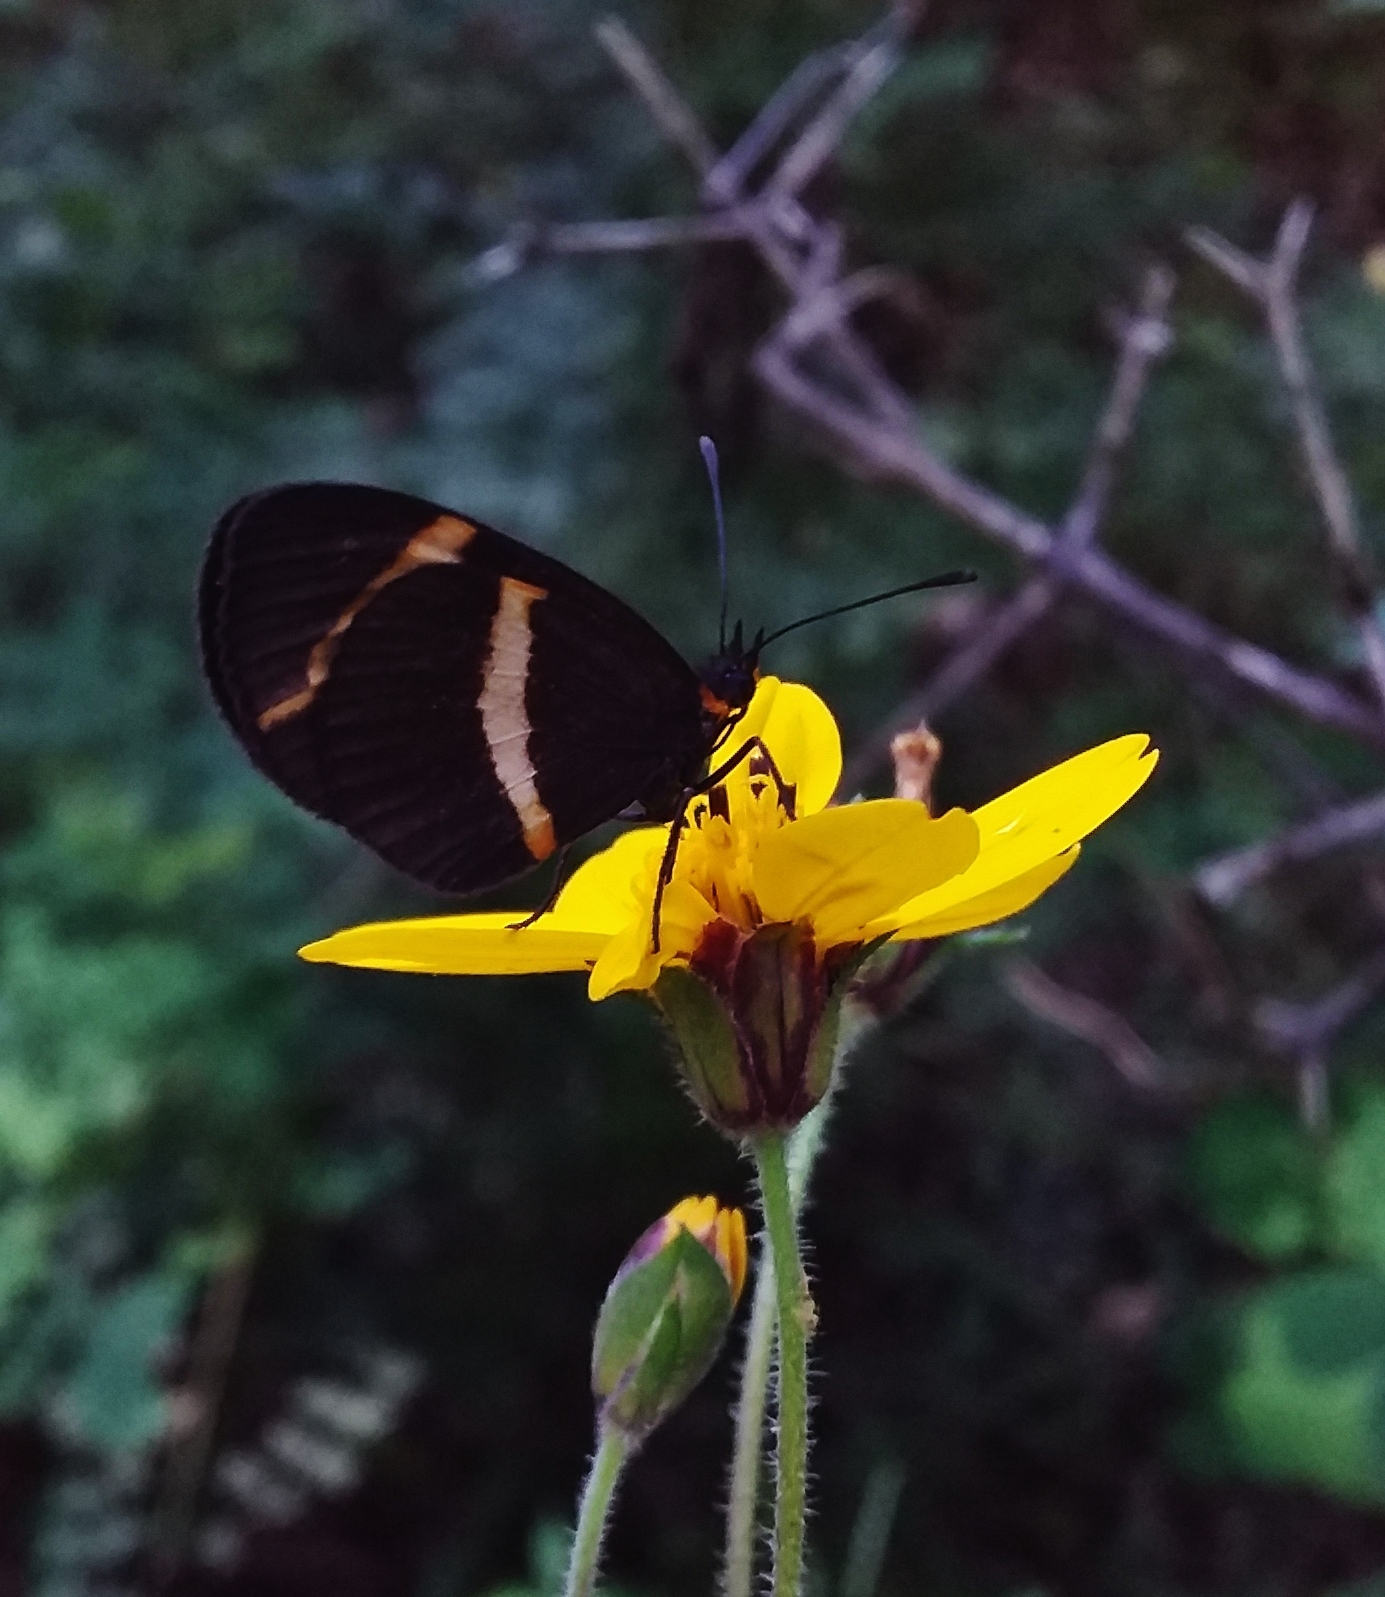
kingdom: Animalia
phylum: Arthropoda
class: Insecta
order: Lepidoptera
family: Nymphalidae
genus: Microtia
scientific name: Microtia elva
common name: Elf
